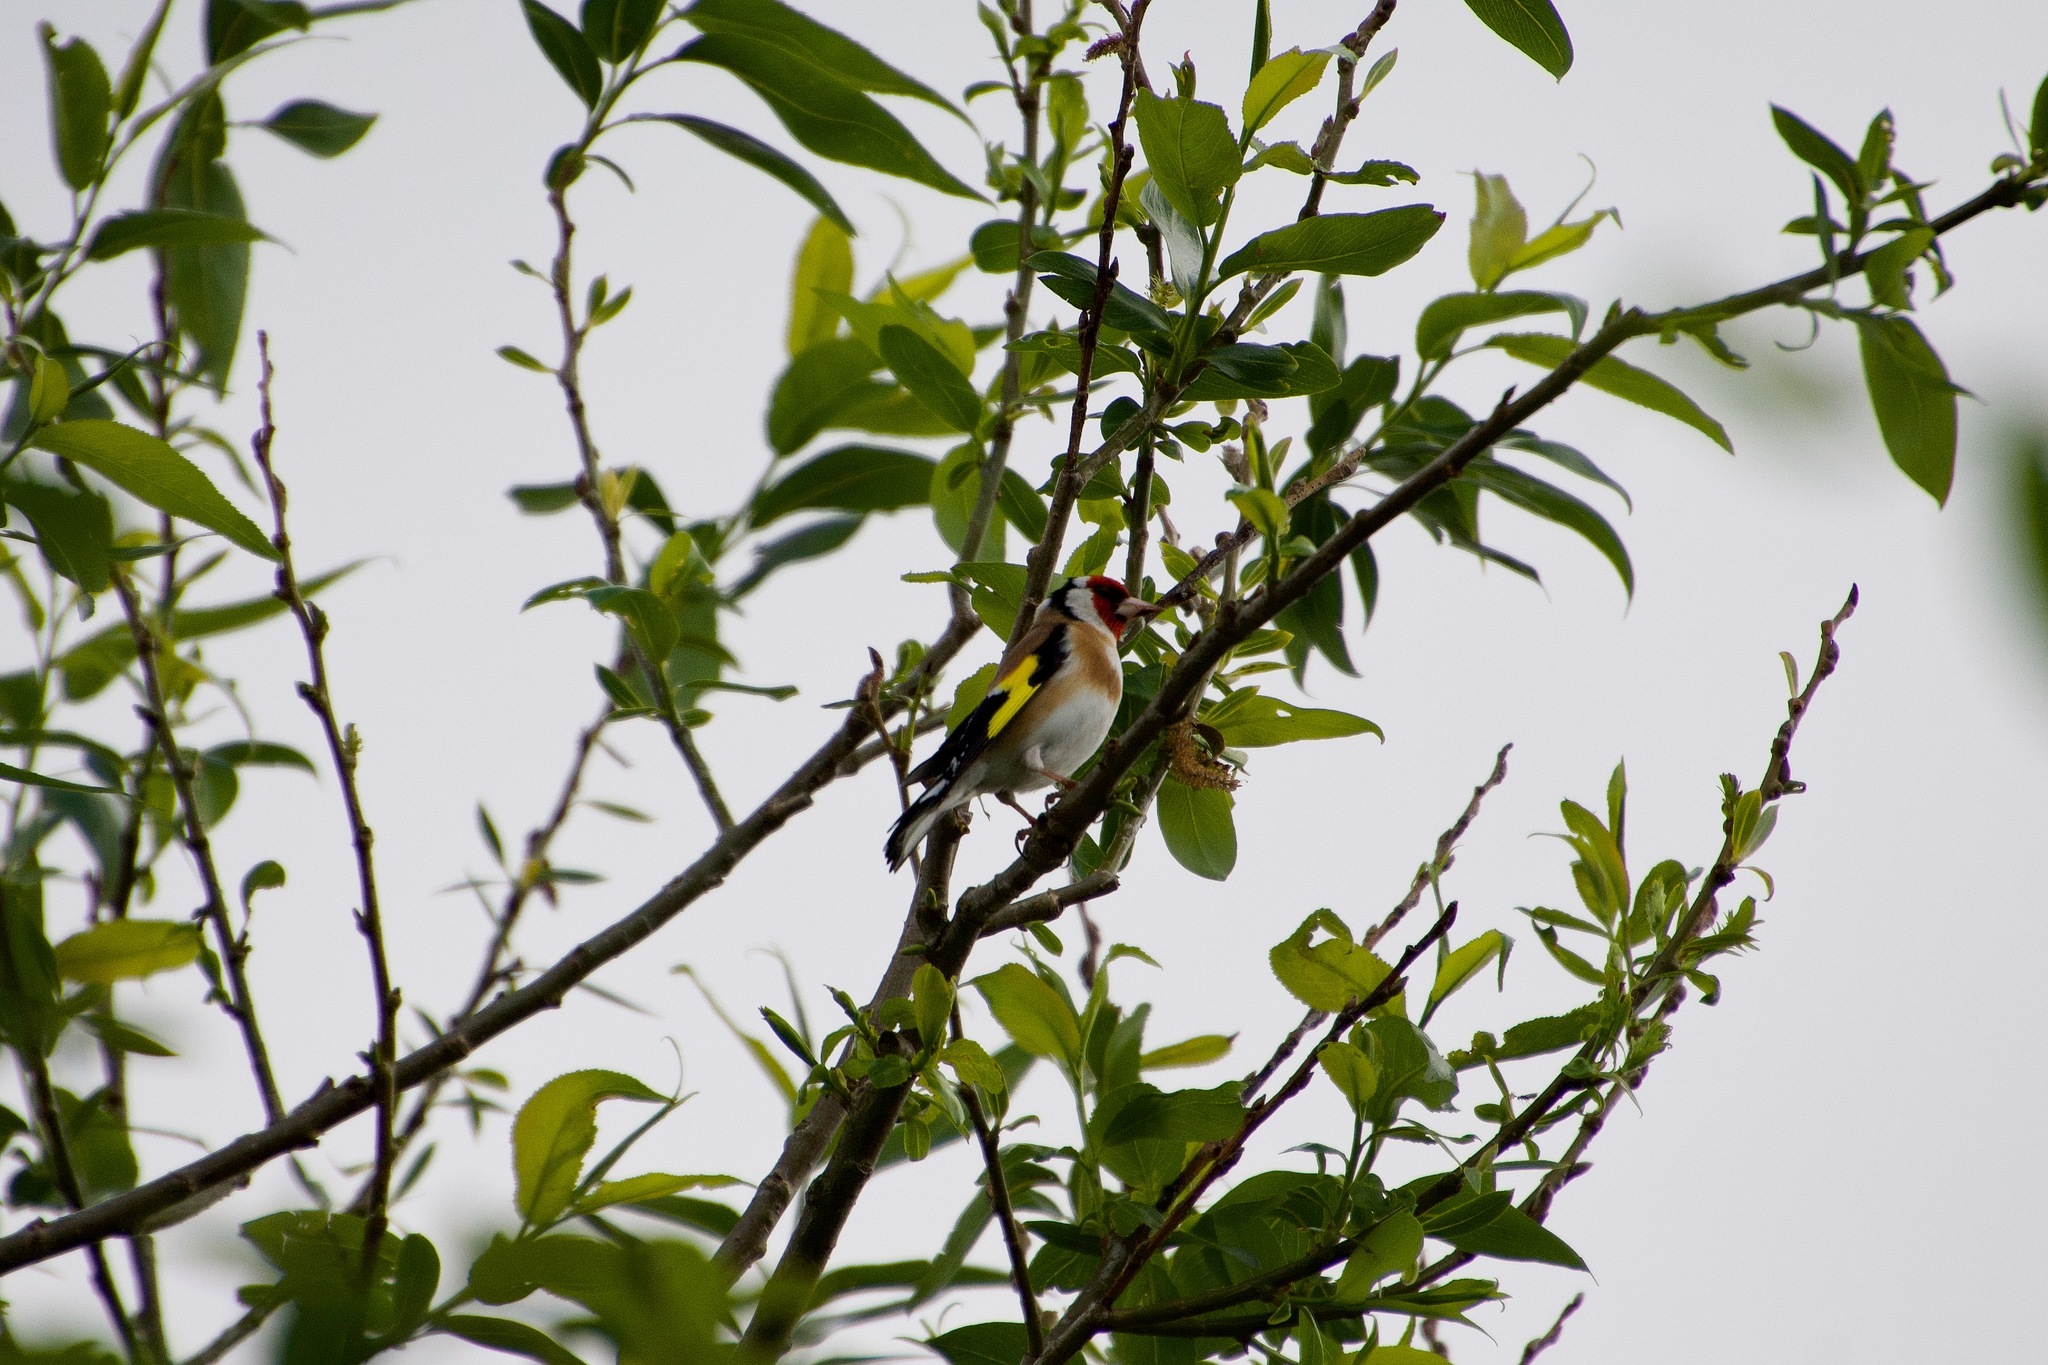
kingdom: Animalia
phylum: Chordata
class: Aves
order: Passeriformes
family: Fringillidae
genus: Carduelis
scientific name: Carduelis carduelis
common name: European goldfinch
